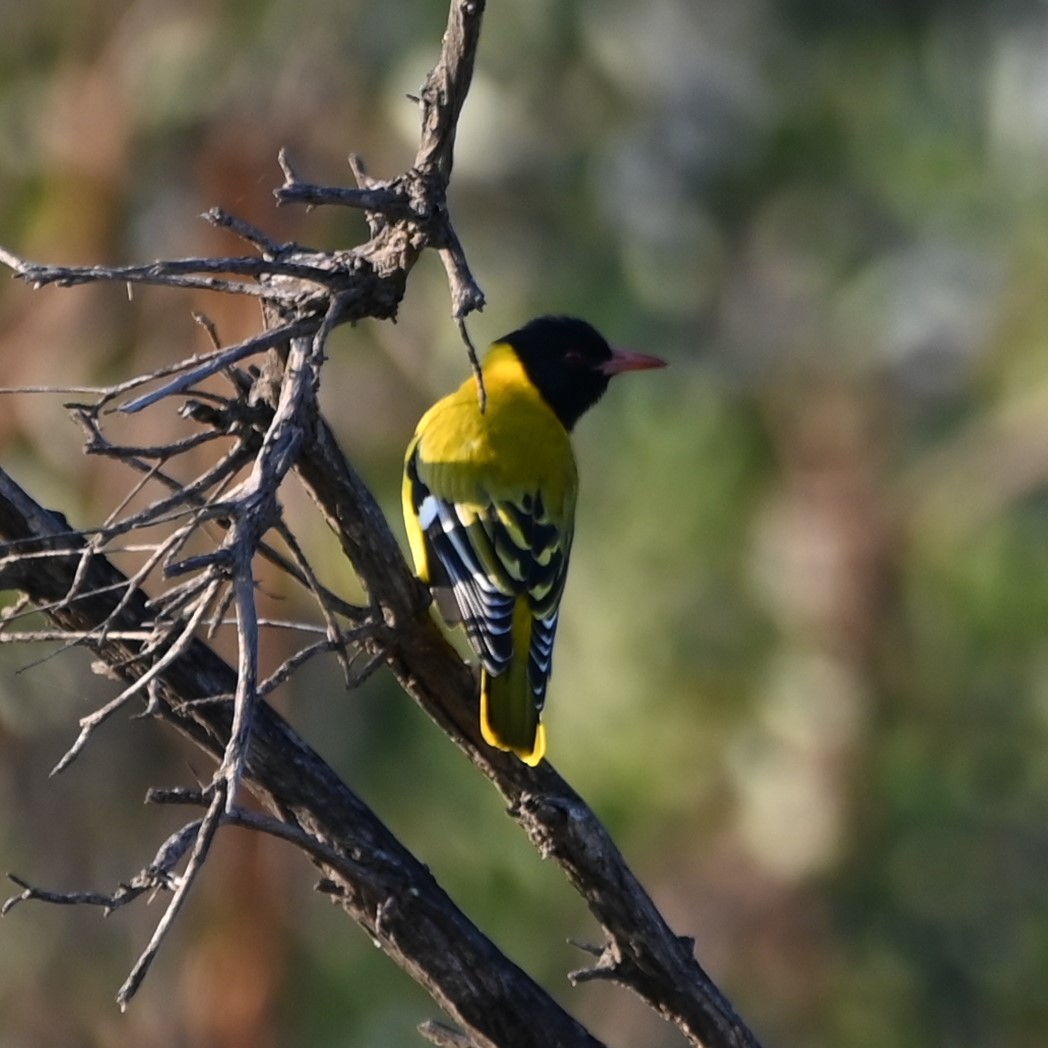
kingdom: Animalia
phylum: Chordata
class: Aves
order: Passeriformes
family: Oriolidae
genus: Oriolus
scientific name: Oriolus larvatus
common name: Black-headed oriole
